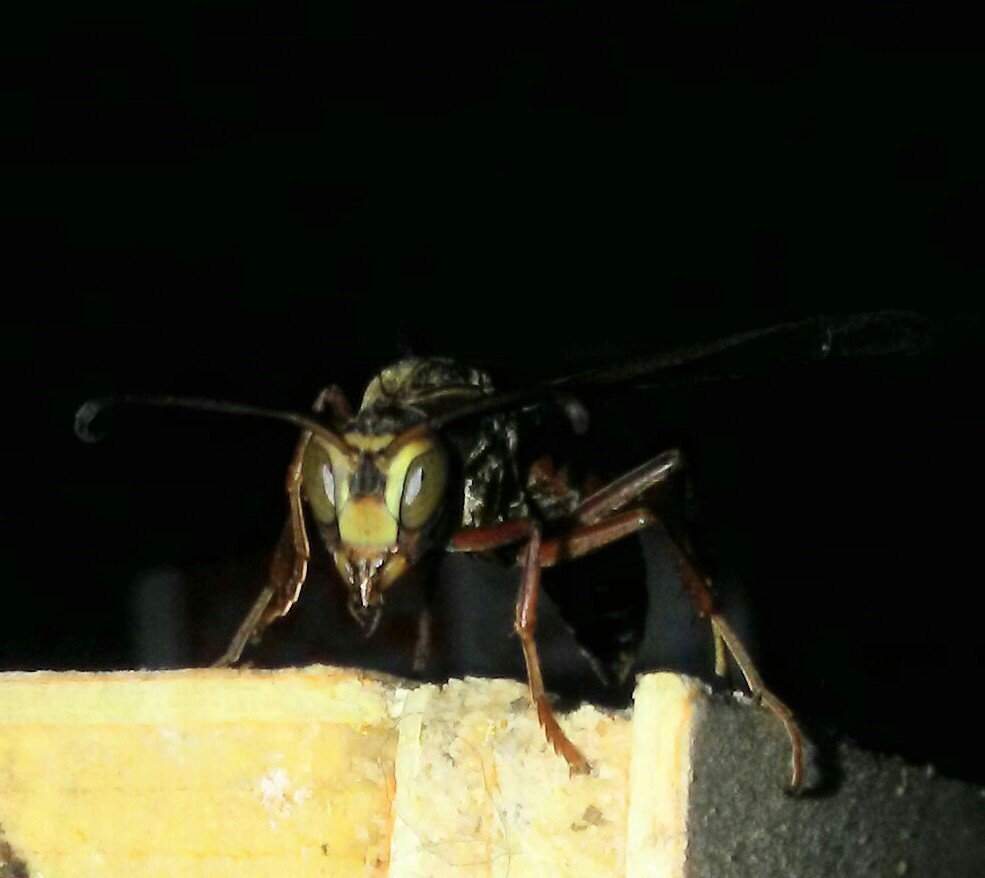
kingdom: Animalia
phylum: Arthropoda
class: Insecta
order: Hymenoptera
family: Vespidae
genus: Fuscopolistes
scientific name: Fuscopolistes
